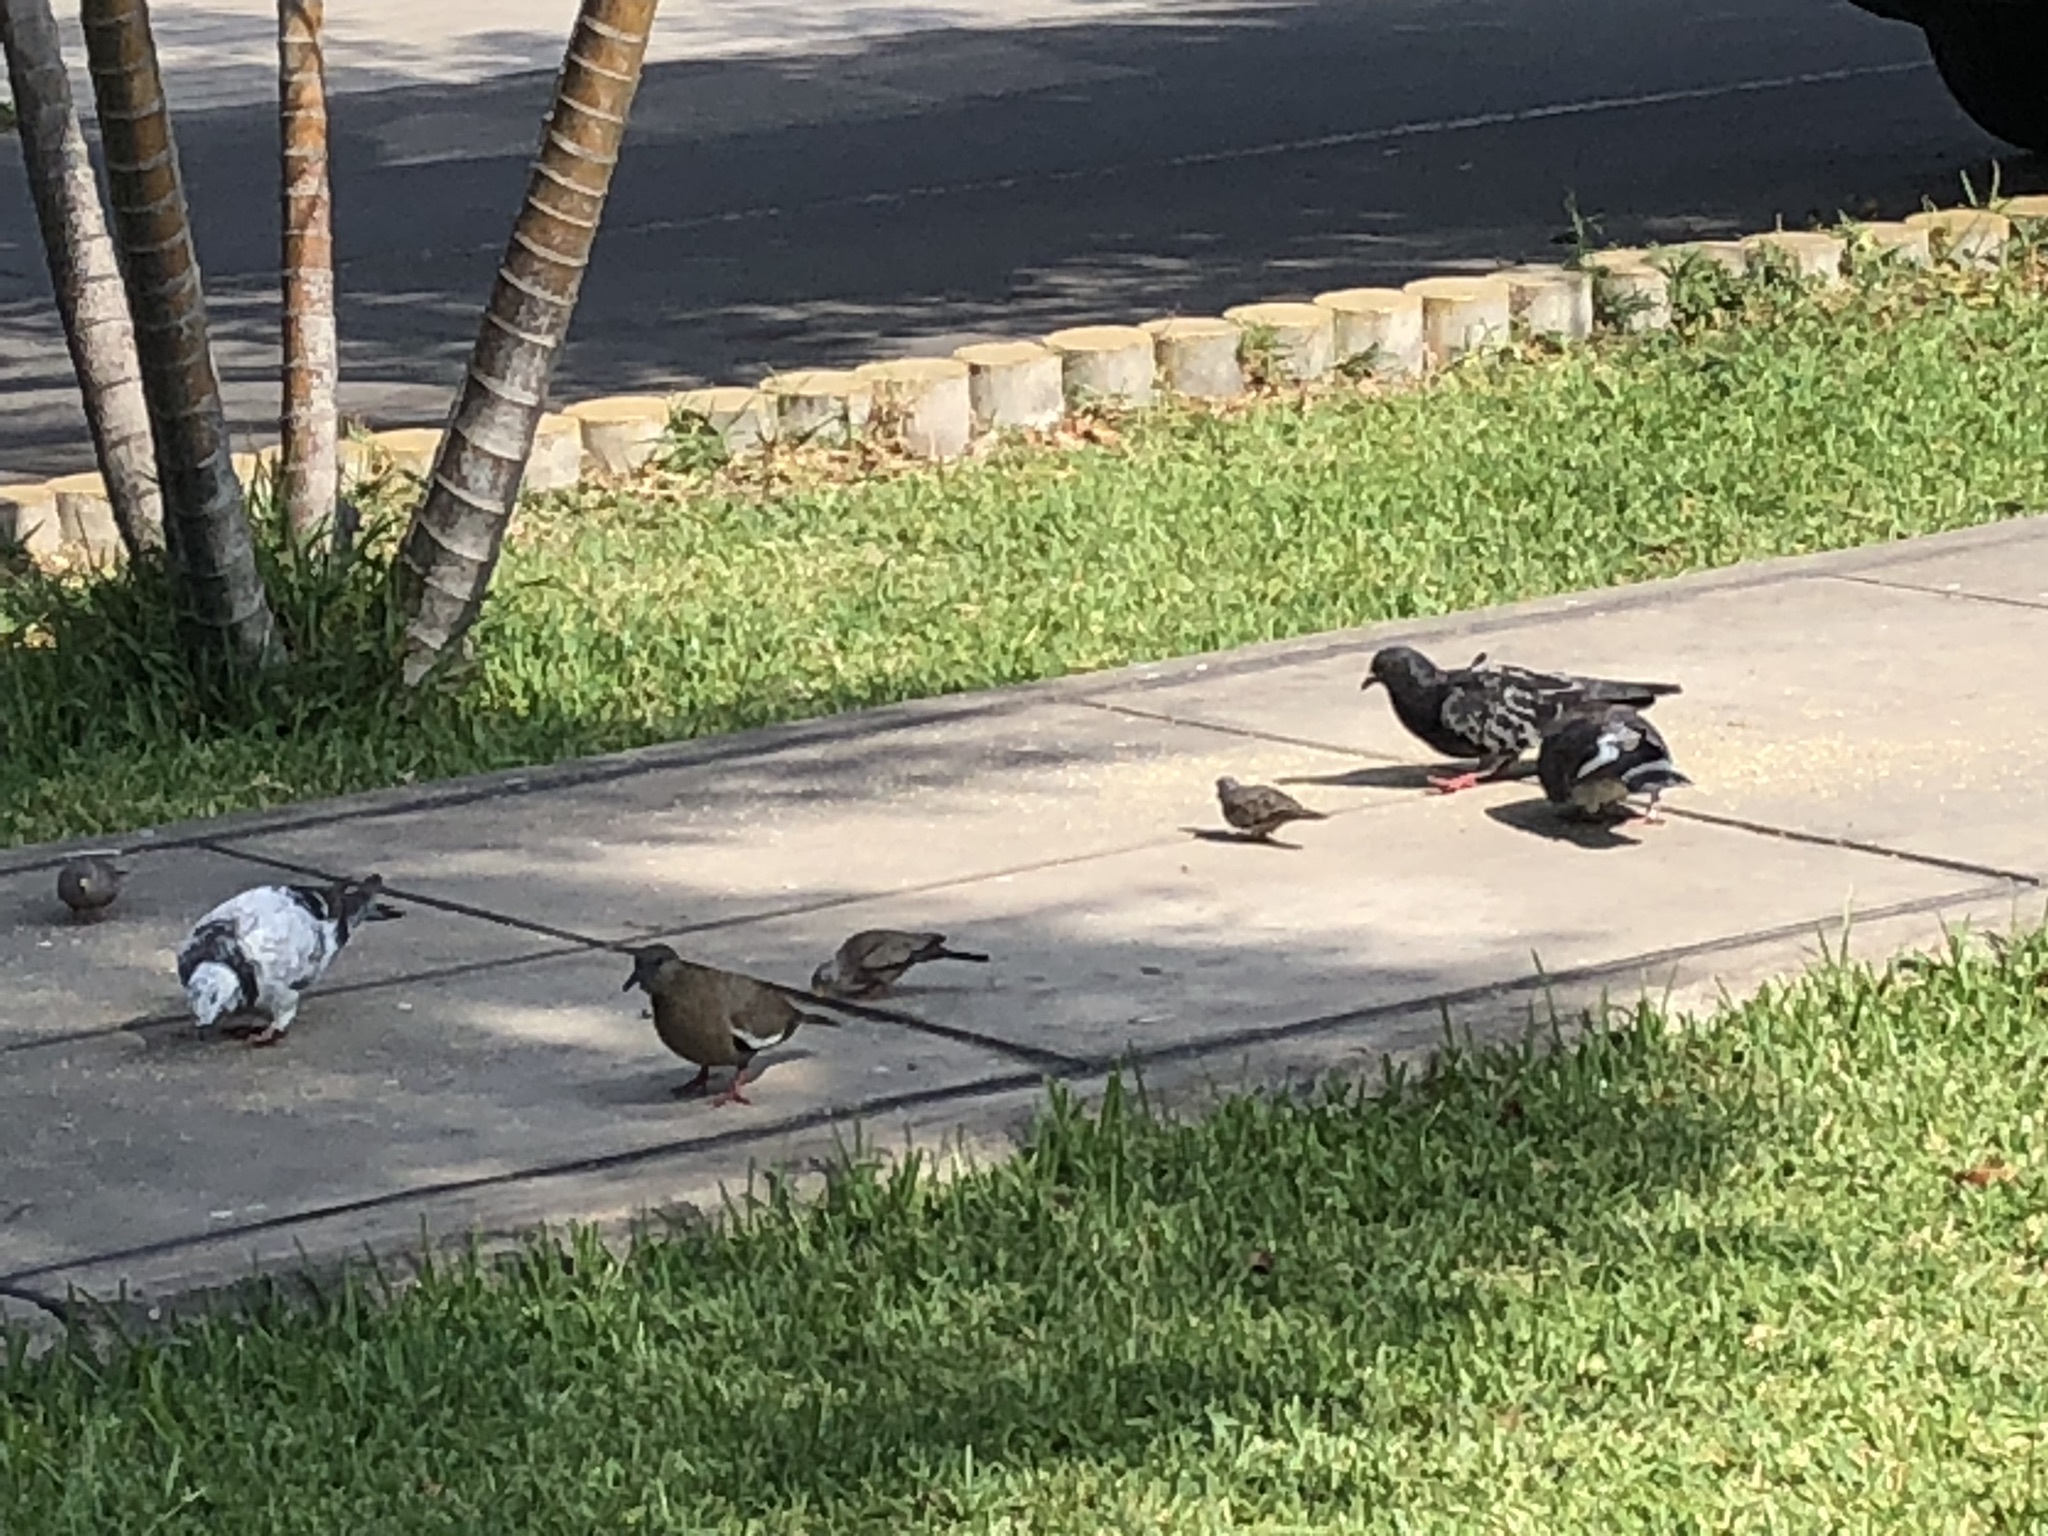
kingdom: Animalia
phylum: Chordata
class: Aves
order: Columbiformes
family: Columbidae
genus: Zenaida
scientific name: Zenaida meloda
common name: West peruvian dove
